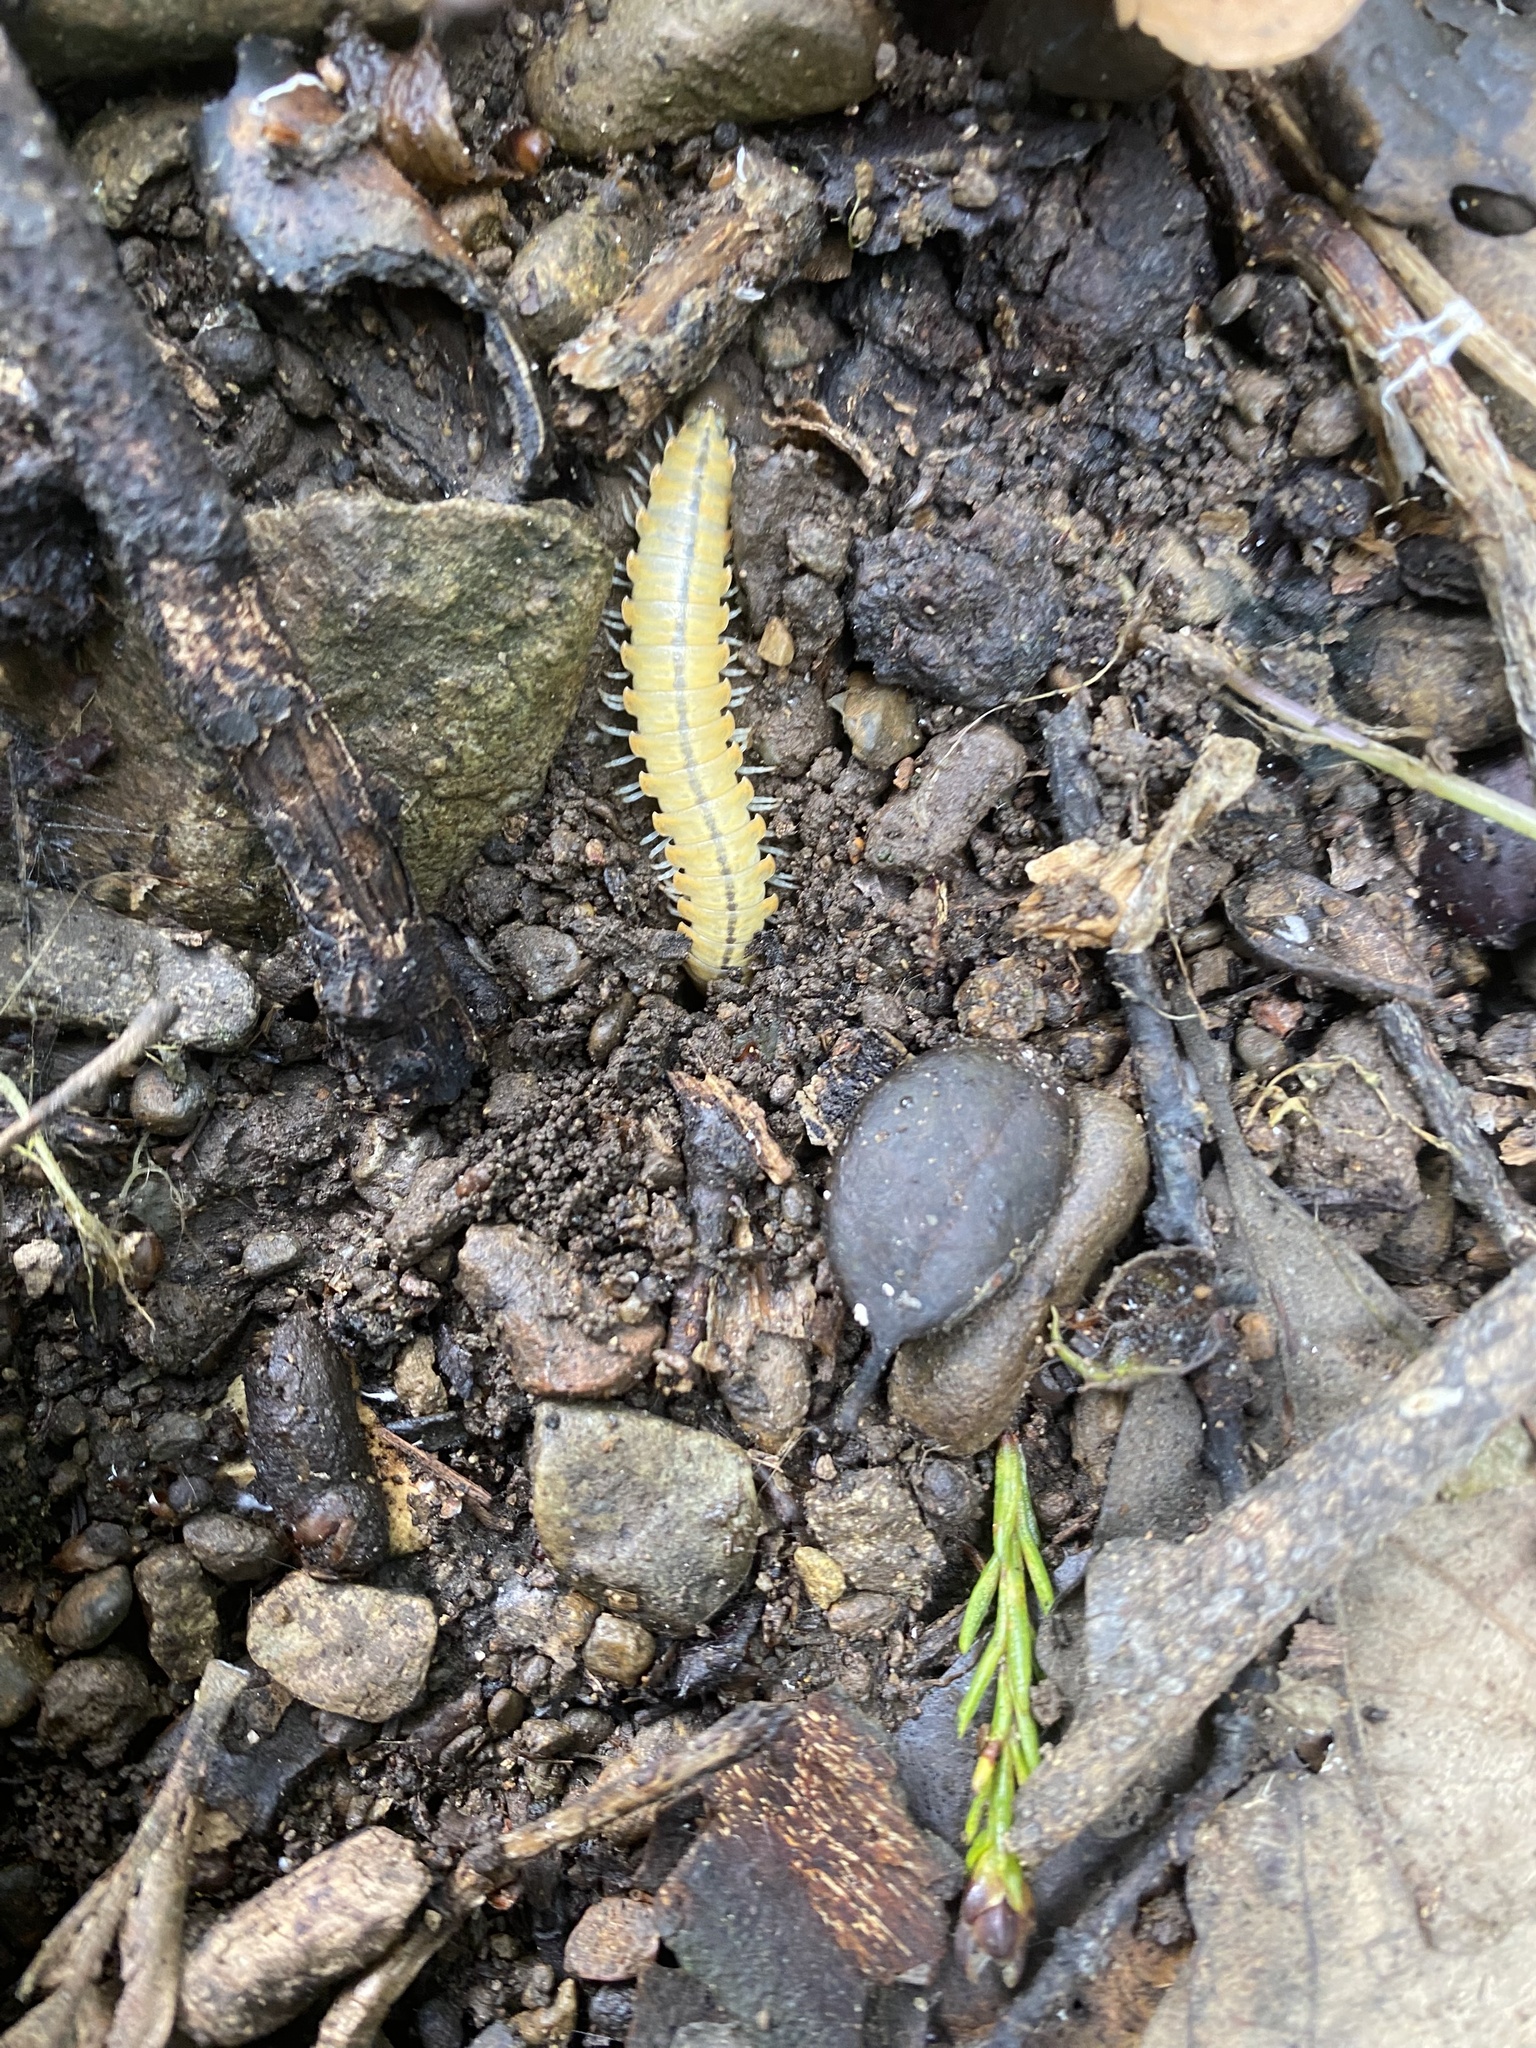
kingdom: Animalia
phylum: Arthropoda
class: Diplopoda
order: Polydesmida
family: Xystodesmidae
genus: Xystocheir
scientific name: Xystocheir dissecta
